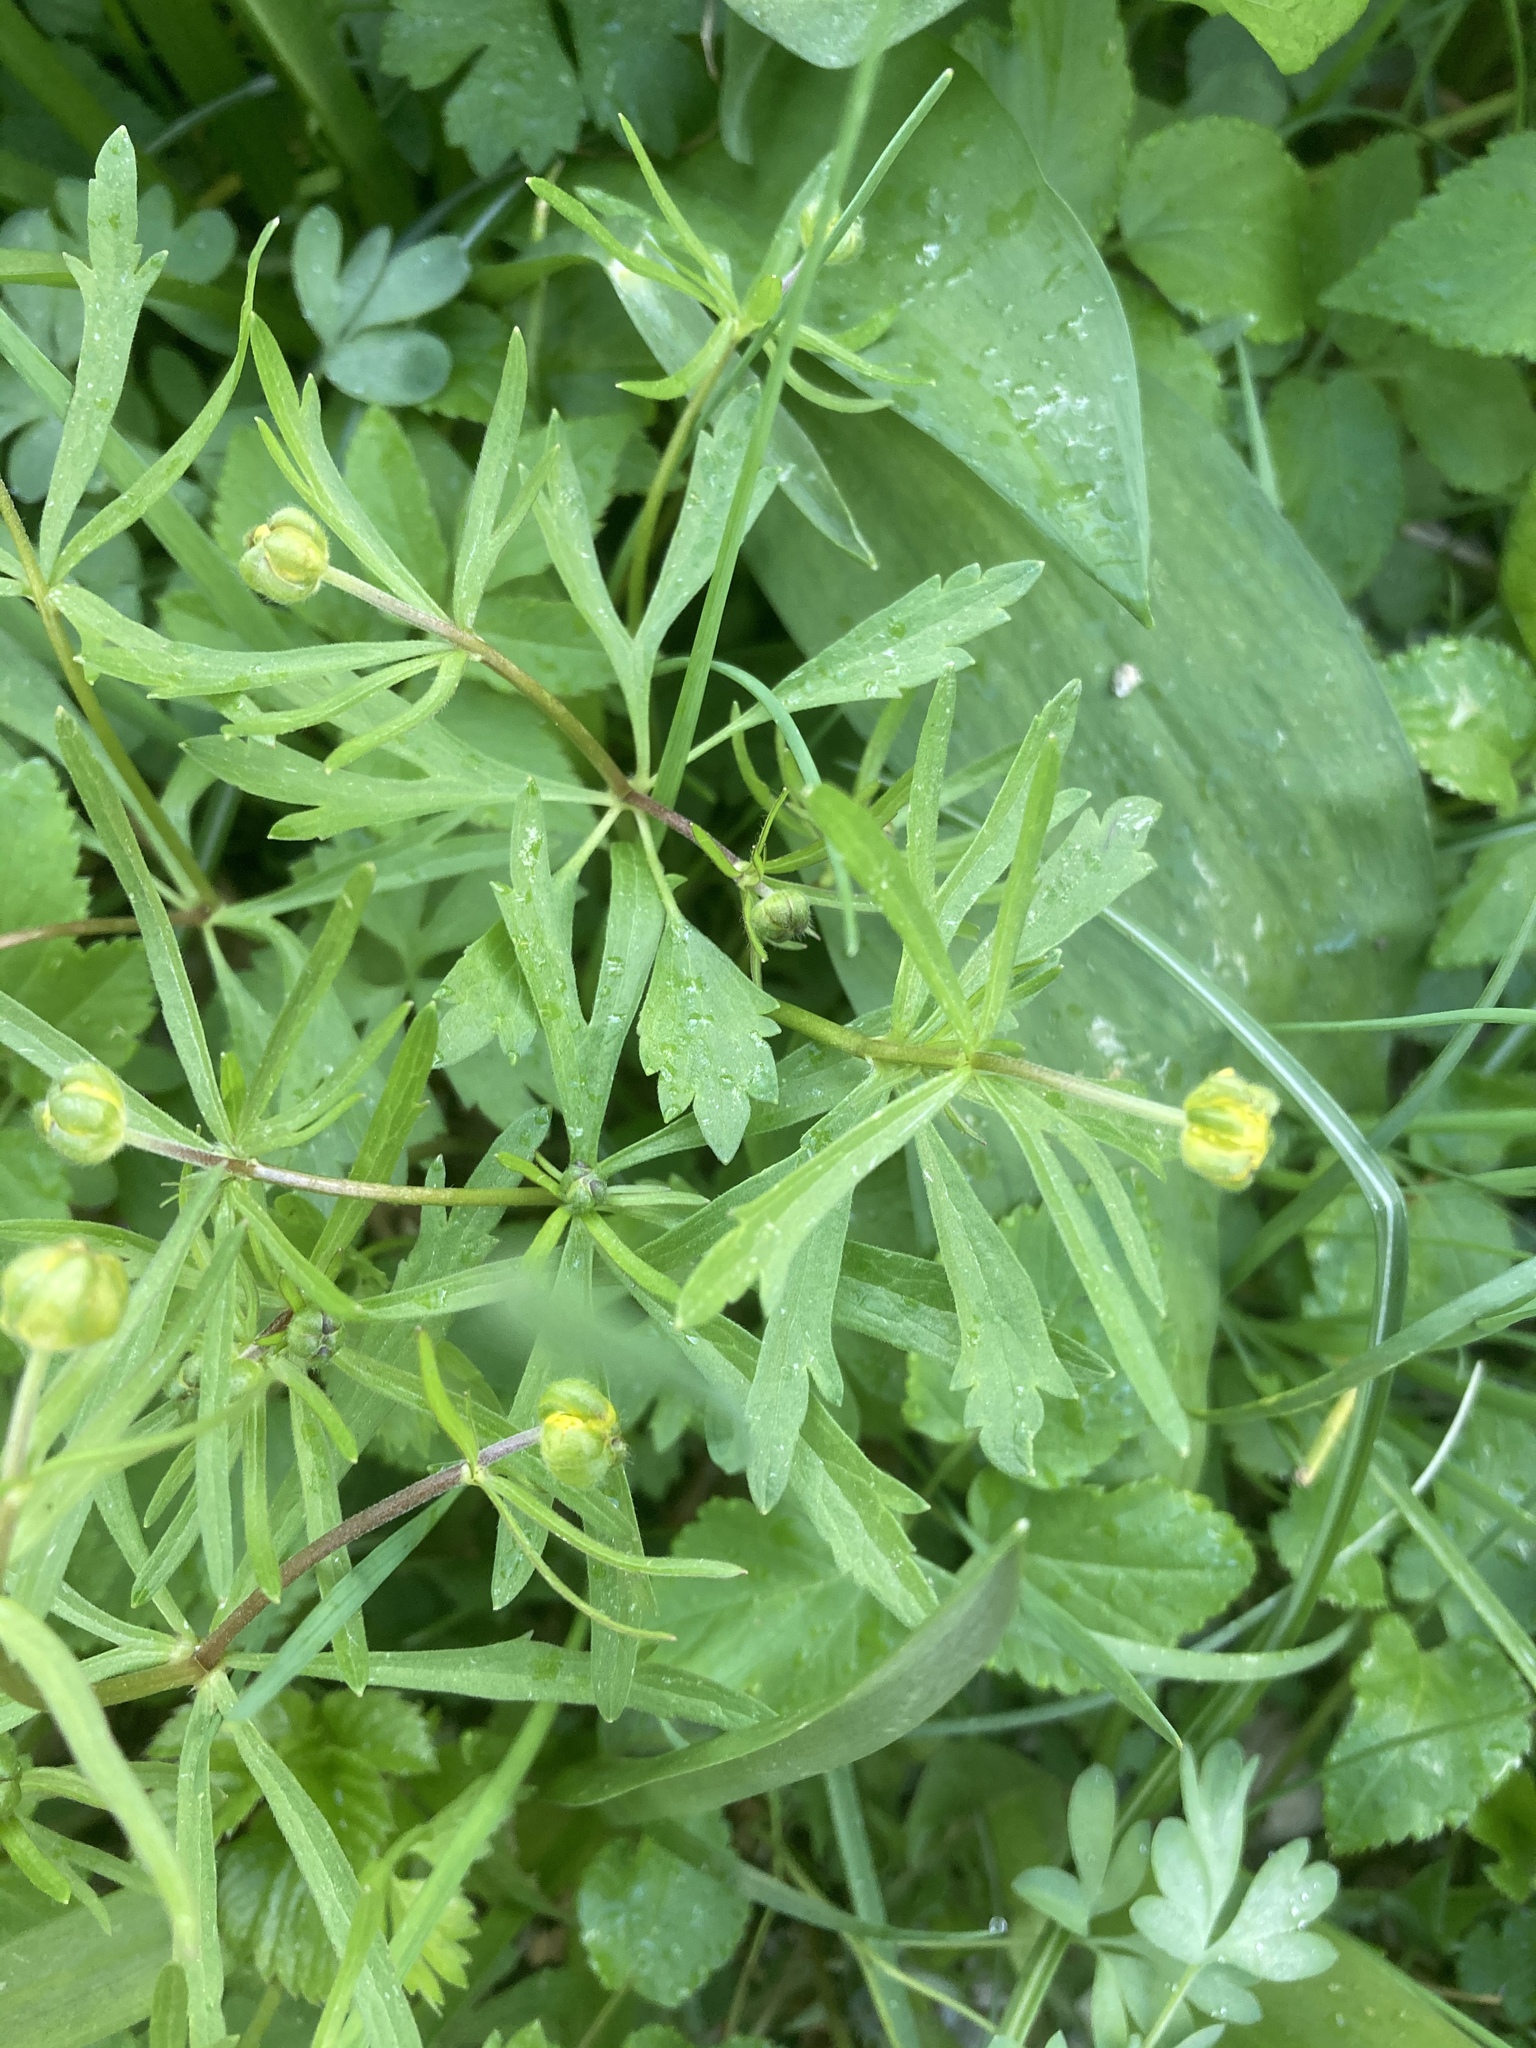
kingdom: Plantae
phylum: Tracheophyta
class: Magnoliopsida
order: Ranunculales
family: Ranunculaceae
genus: Ranunculus
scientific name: Ranunculus auricomus
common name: Goldilocks buttercup
